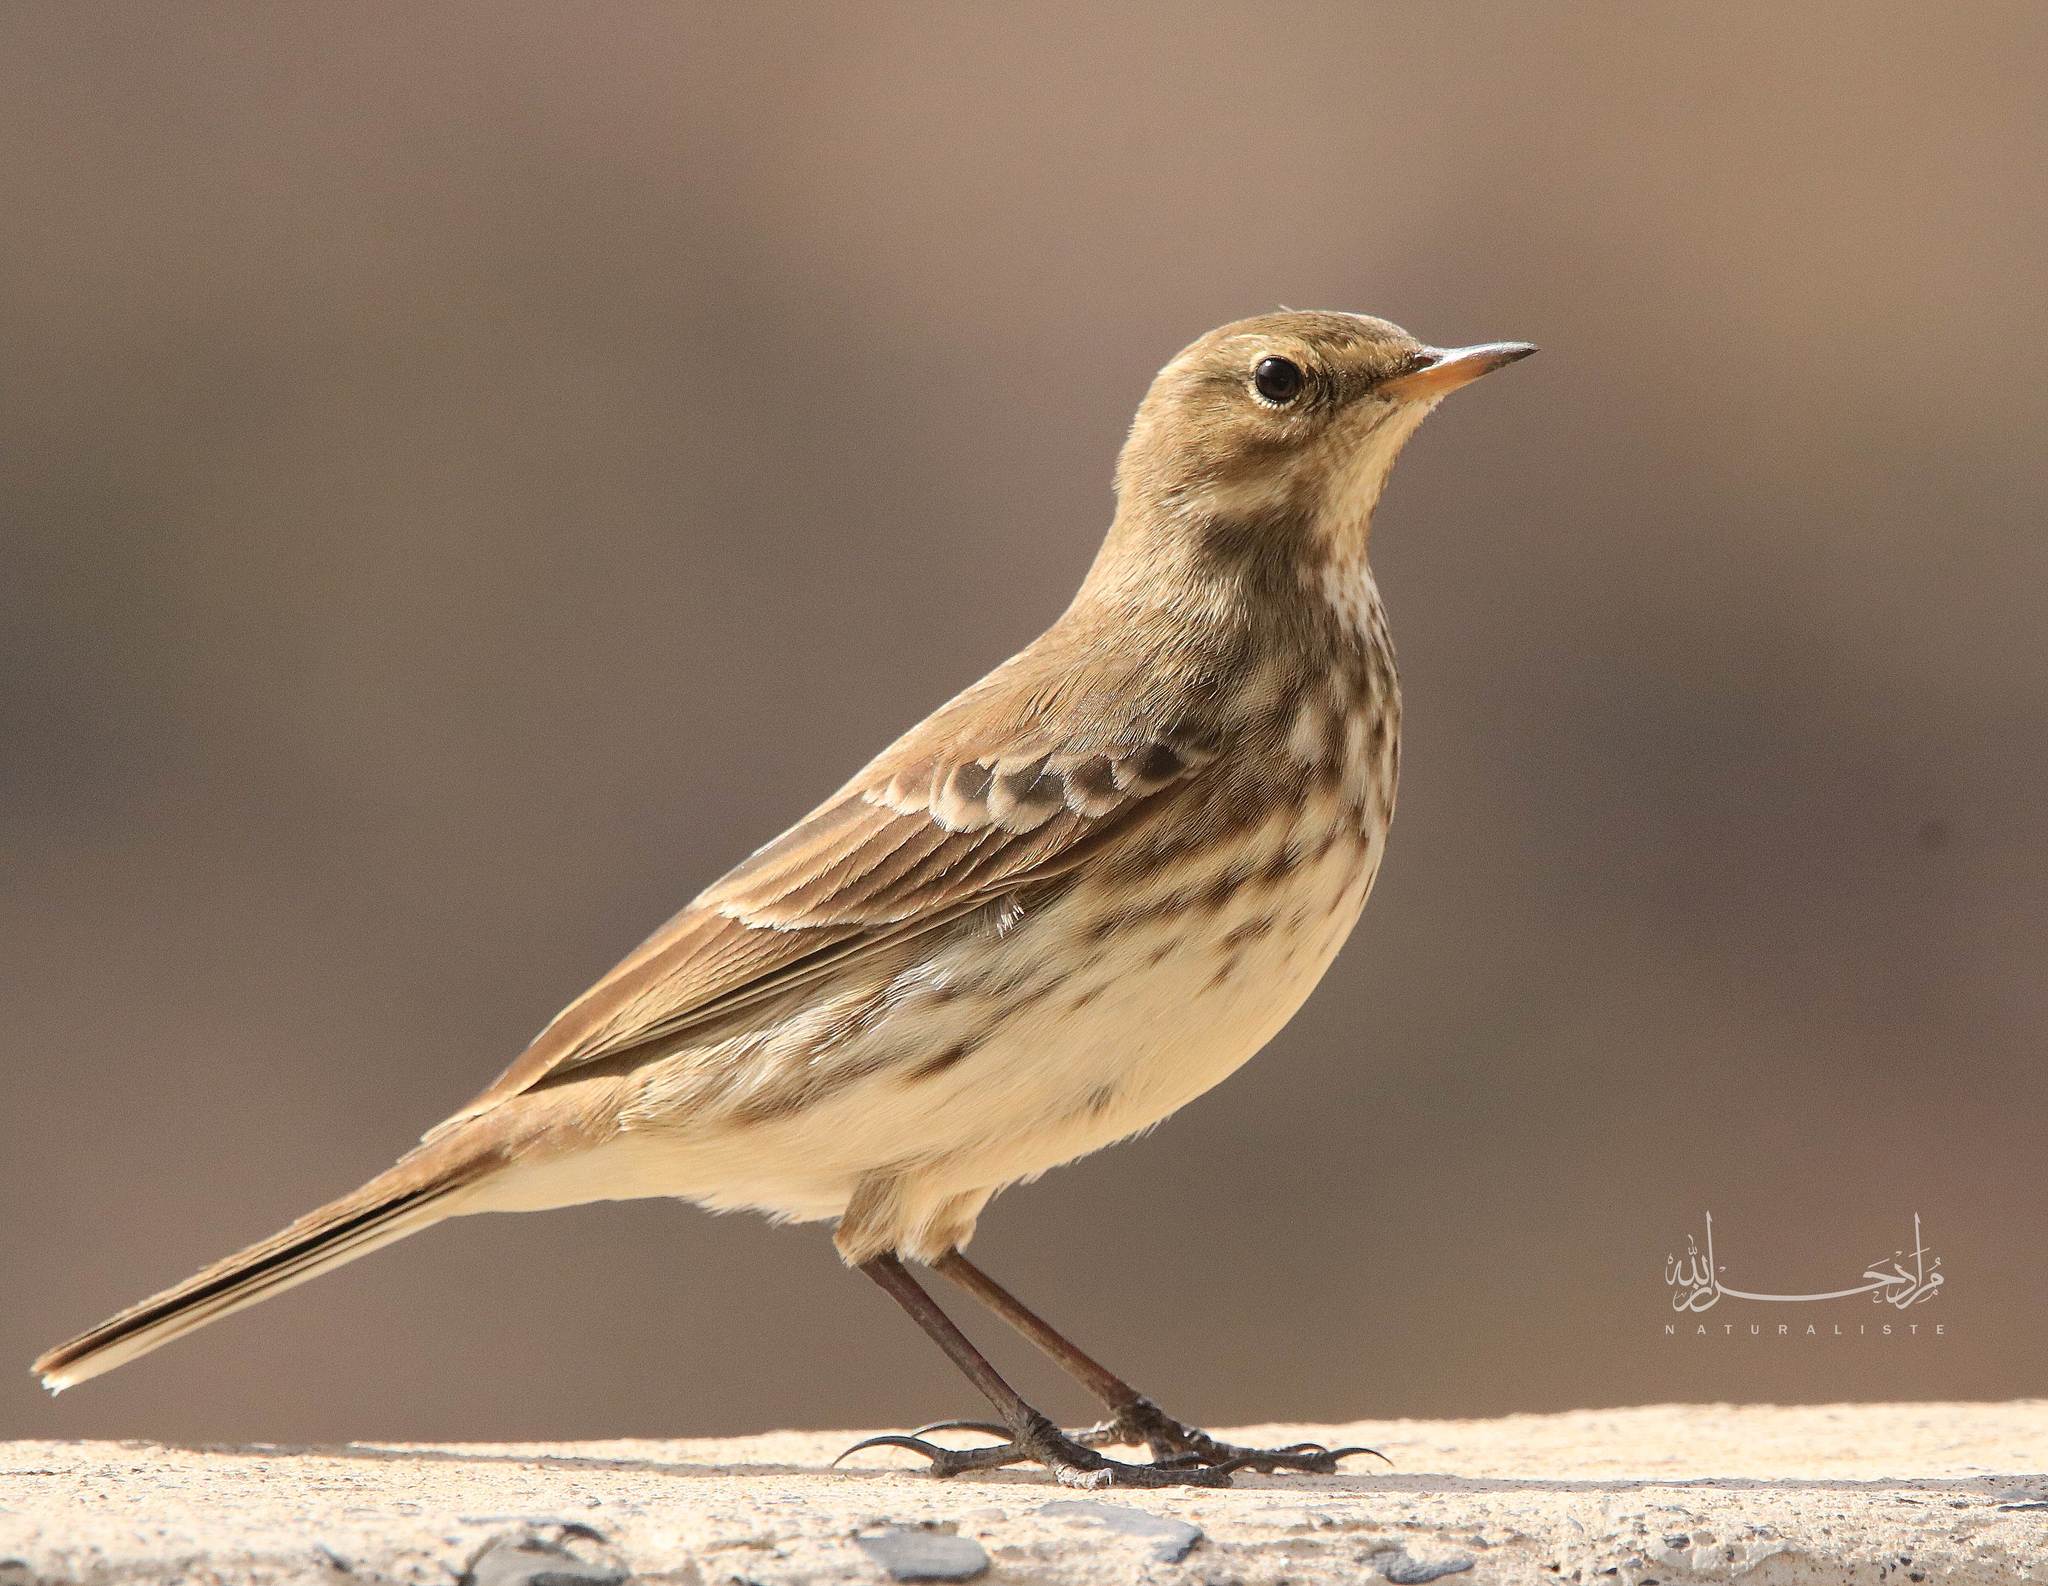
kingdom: Animalia
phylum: Chordata
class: Aves
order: Passeriformes
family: Motacillidae
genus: Anthus
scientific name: Anthus spinoletta
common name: Water pipit
